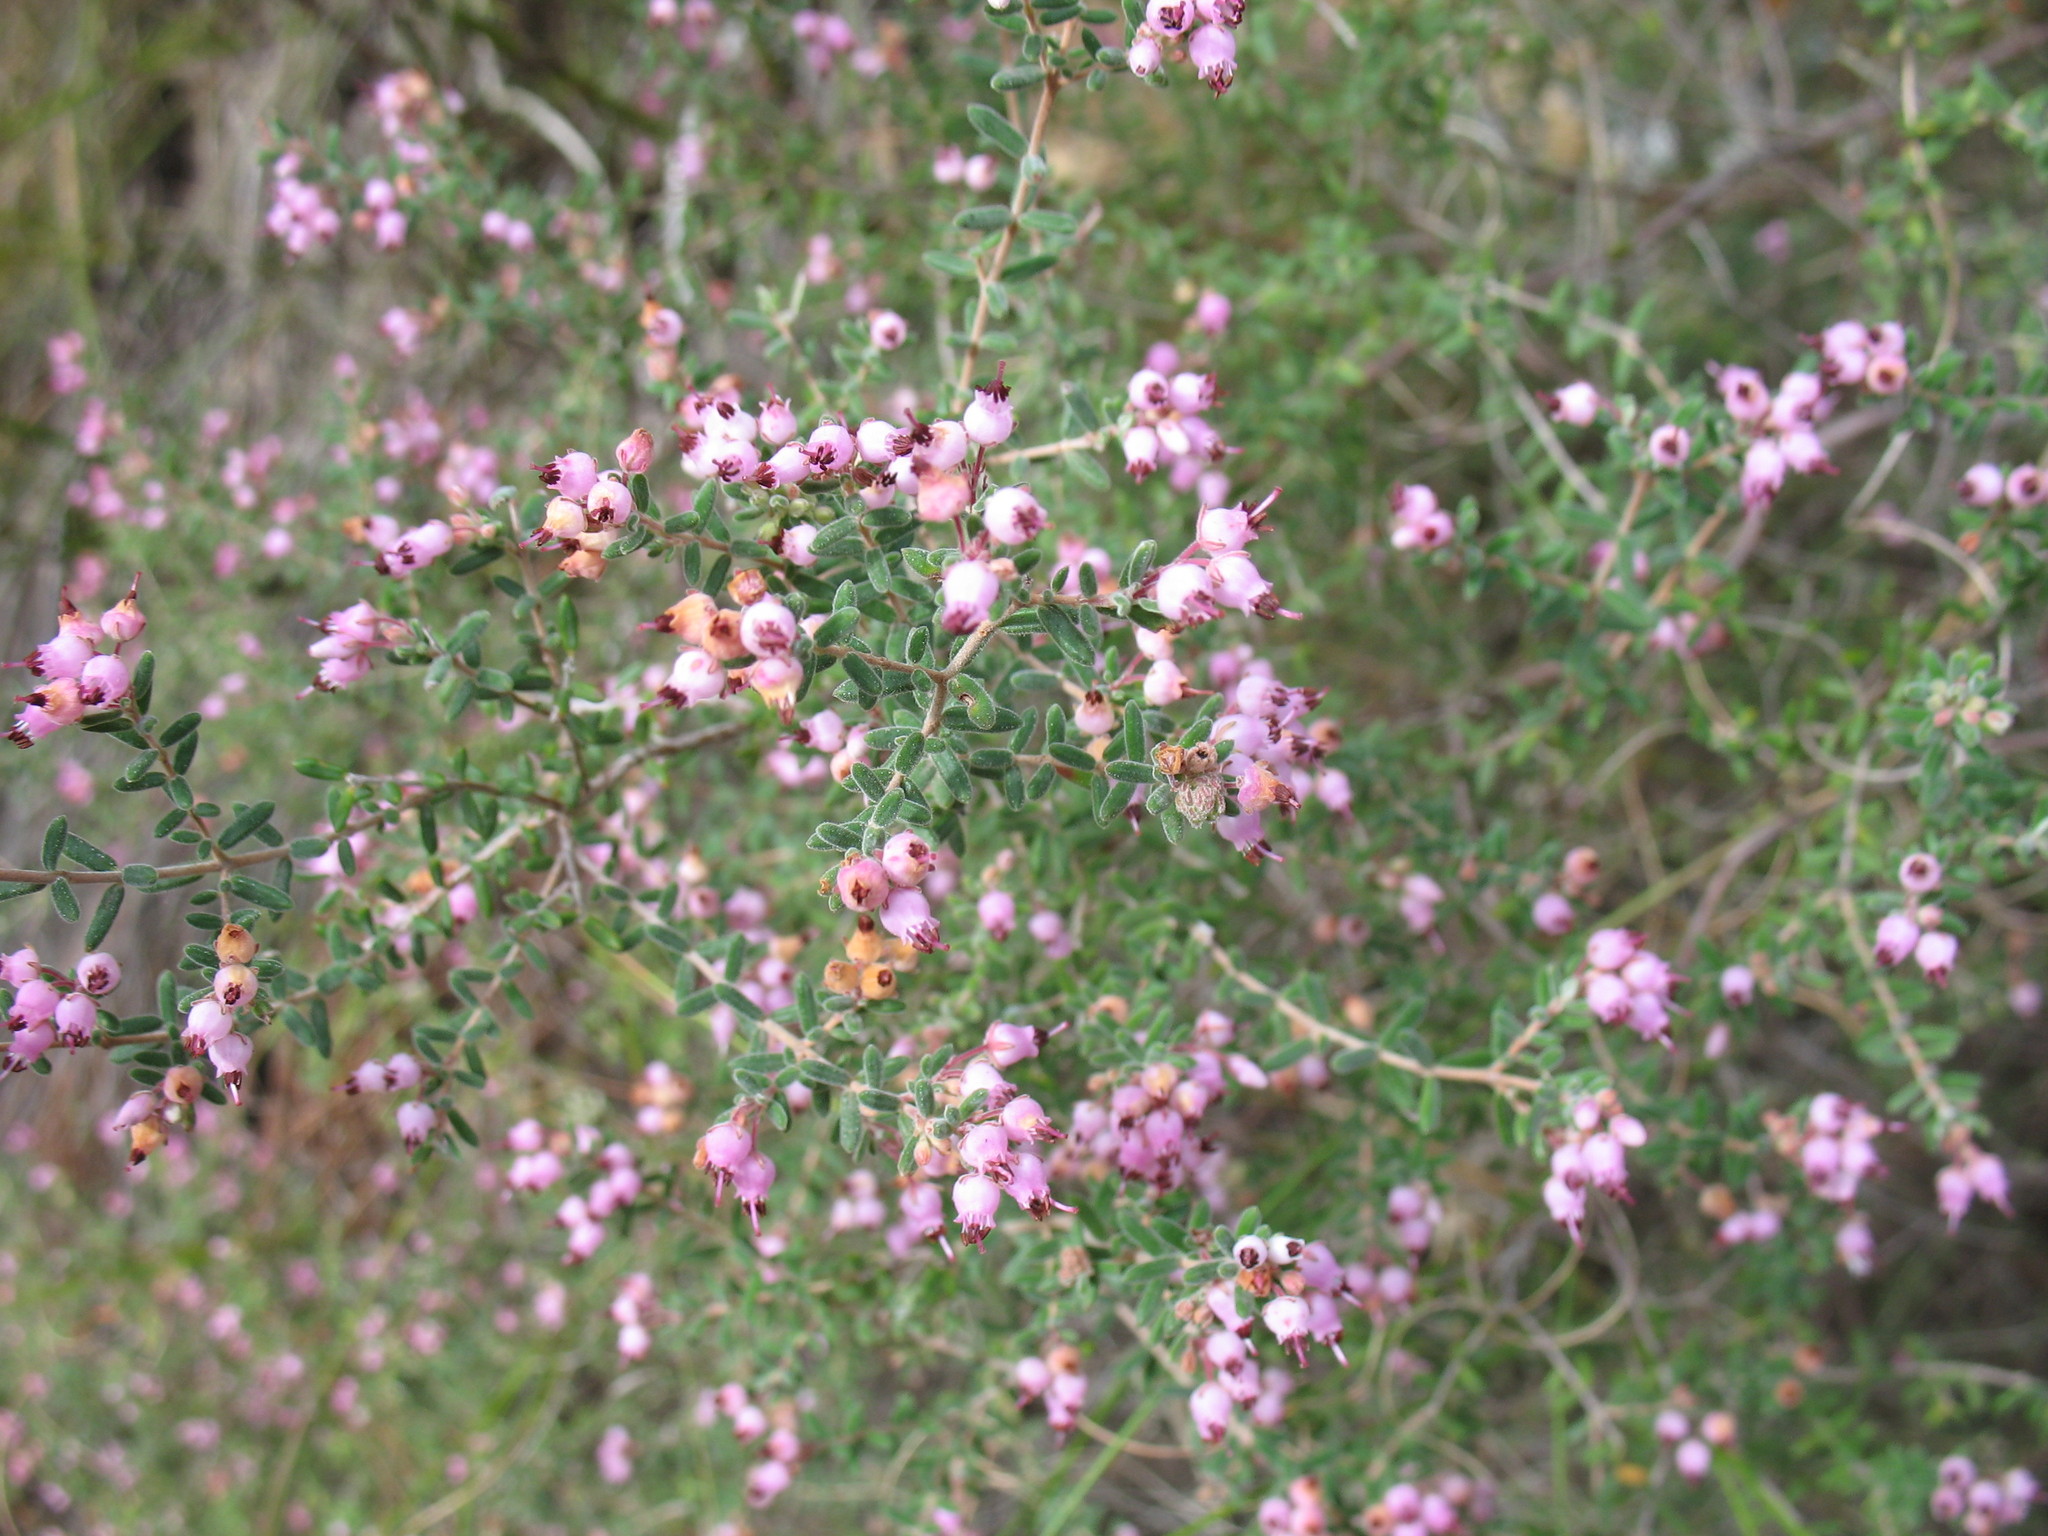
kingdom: Plantae
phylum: Tracheophyta
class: Magnoliopsida
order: Ericales
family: Ericaceae
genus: Erica
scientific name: Erica tradouwensis
